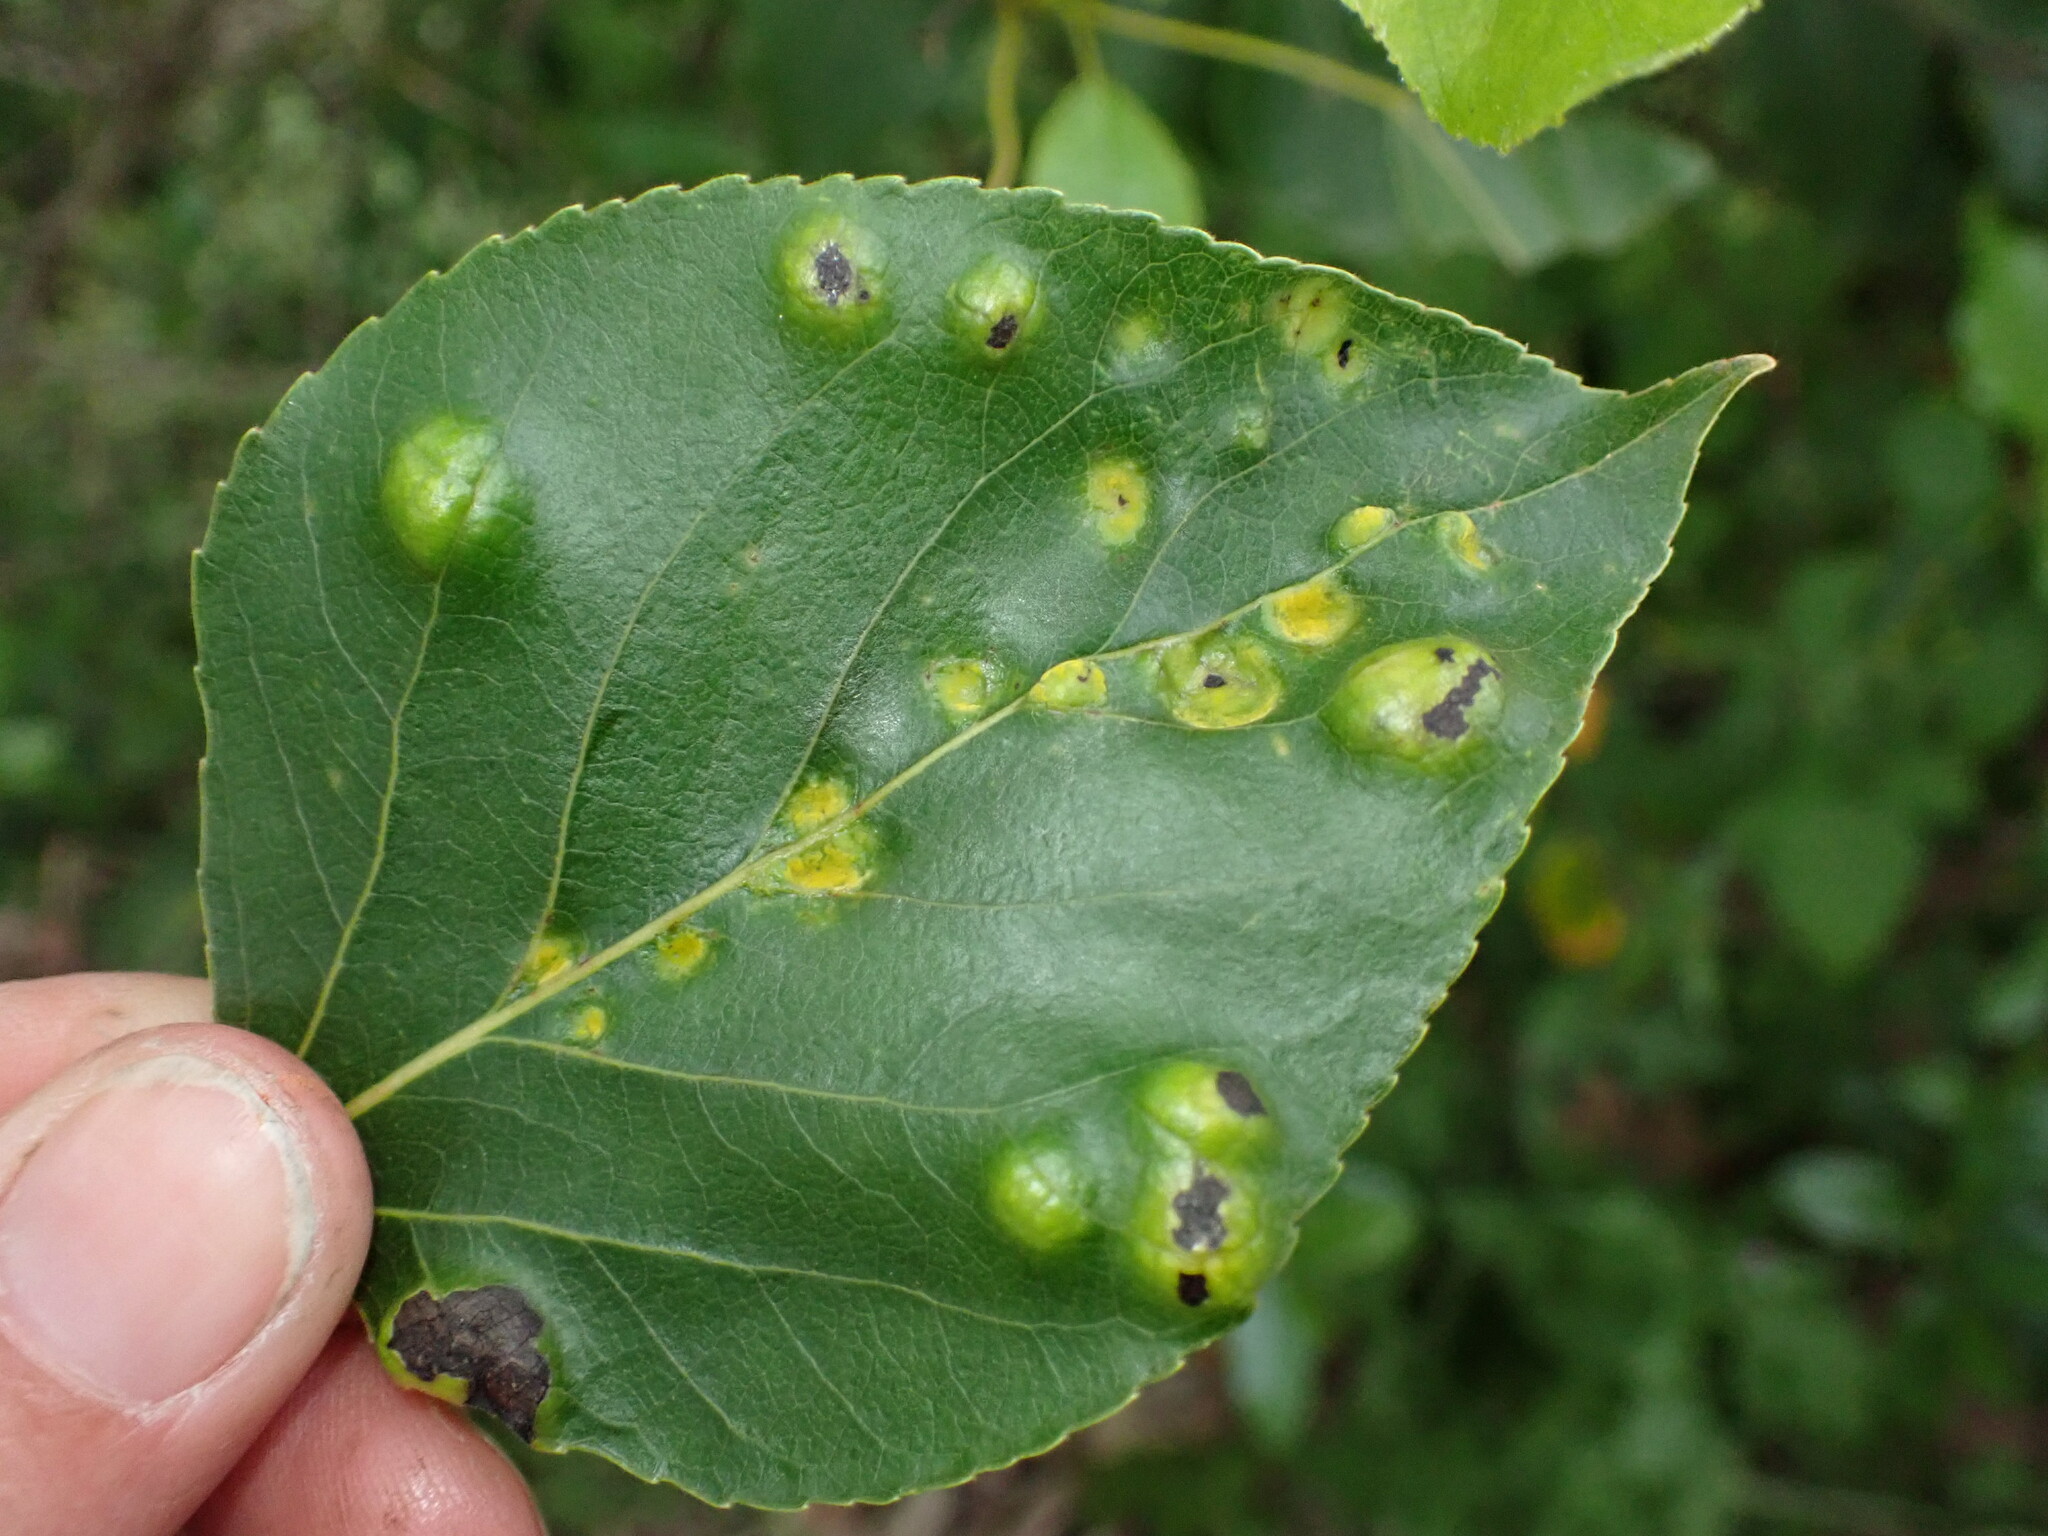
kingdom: Fungi
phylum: Ascomycota
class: Taphrinomycetes
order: Taphrinales
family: Taphrinaceae
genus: Taphrina
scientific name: Taphrina populi-salicis
